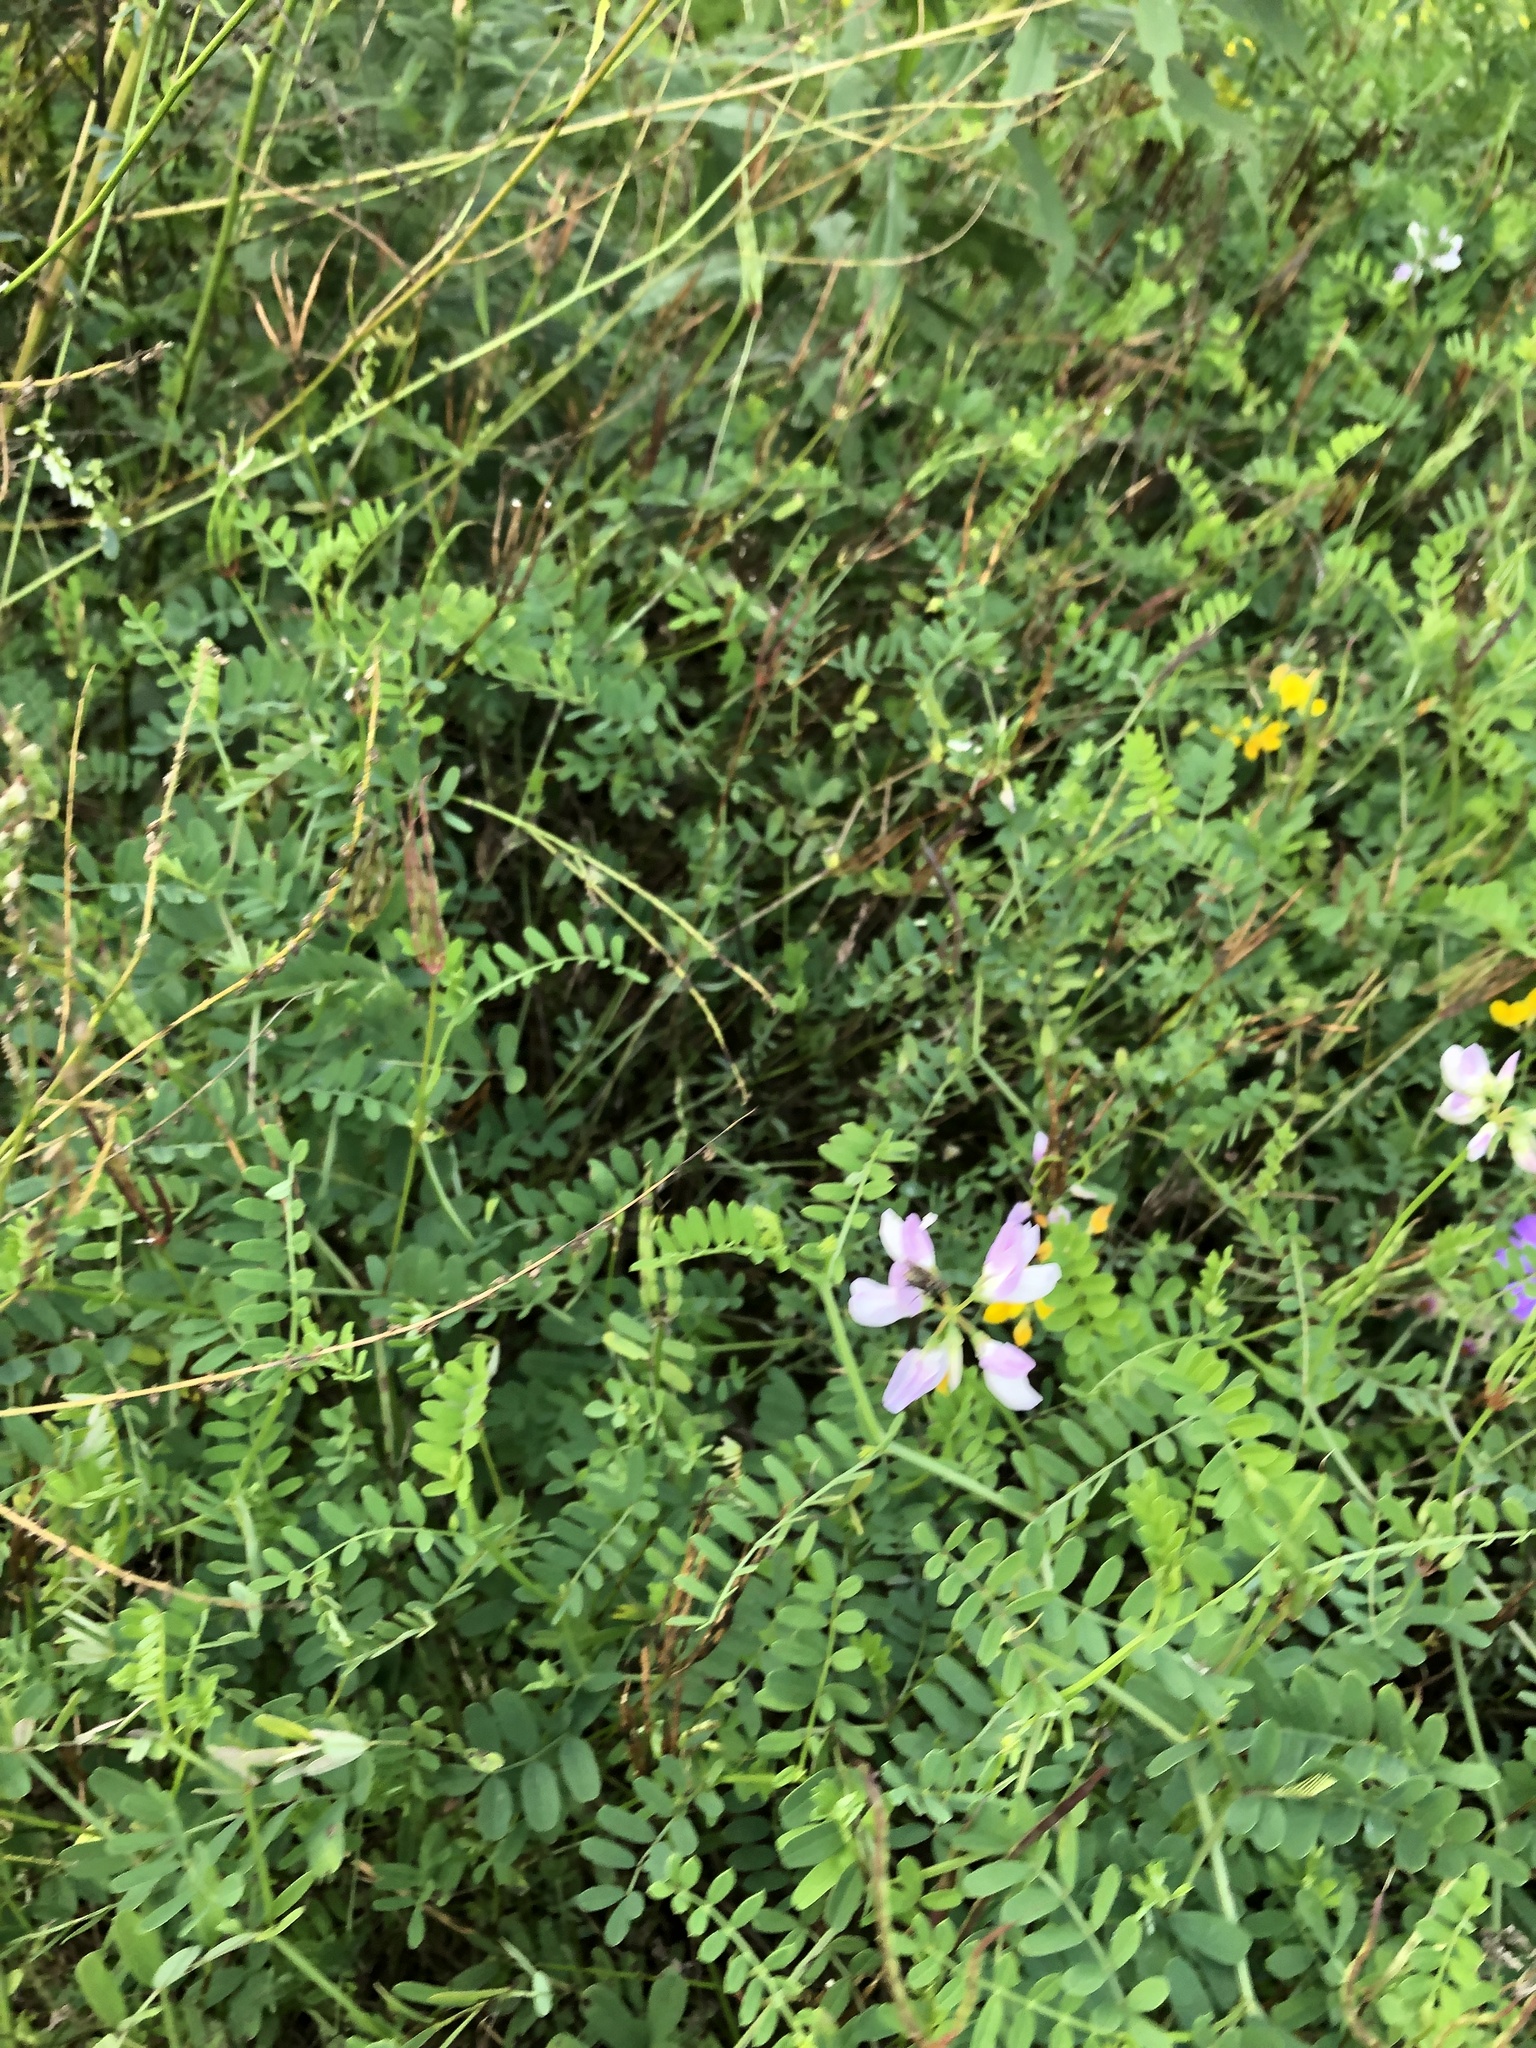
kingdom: Plantae
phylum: Tracheophyta
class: Magnoliopsida
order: Fabales
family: Fabaceae
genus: Coronilla
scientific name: Coronilla varia
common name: Crownvetch
